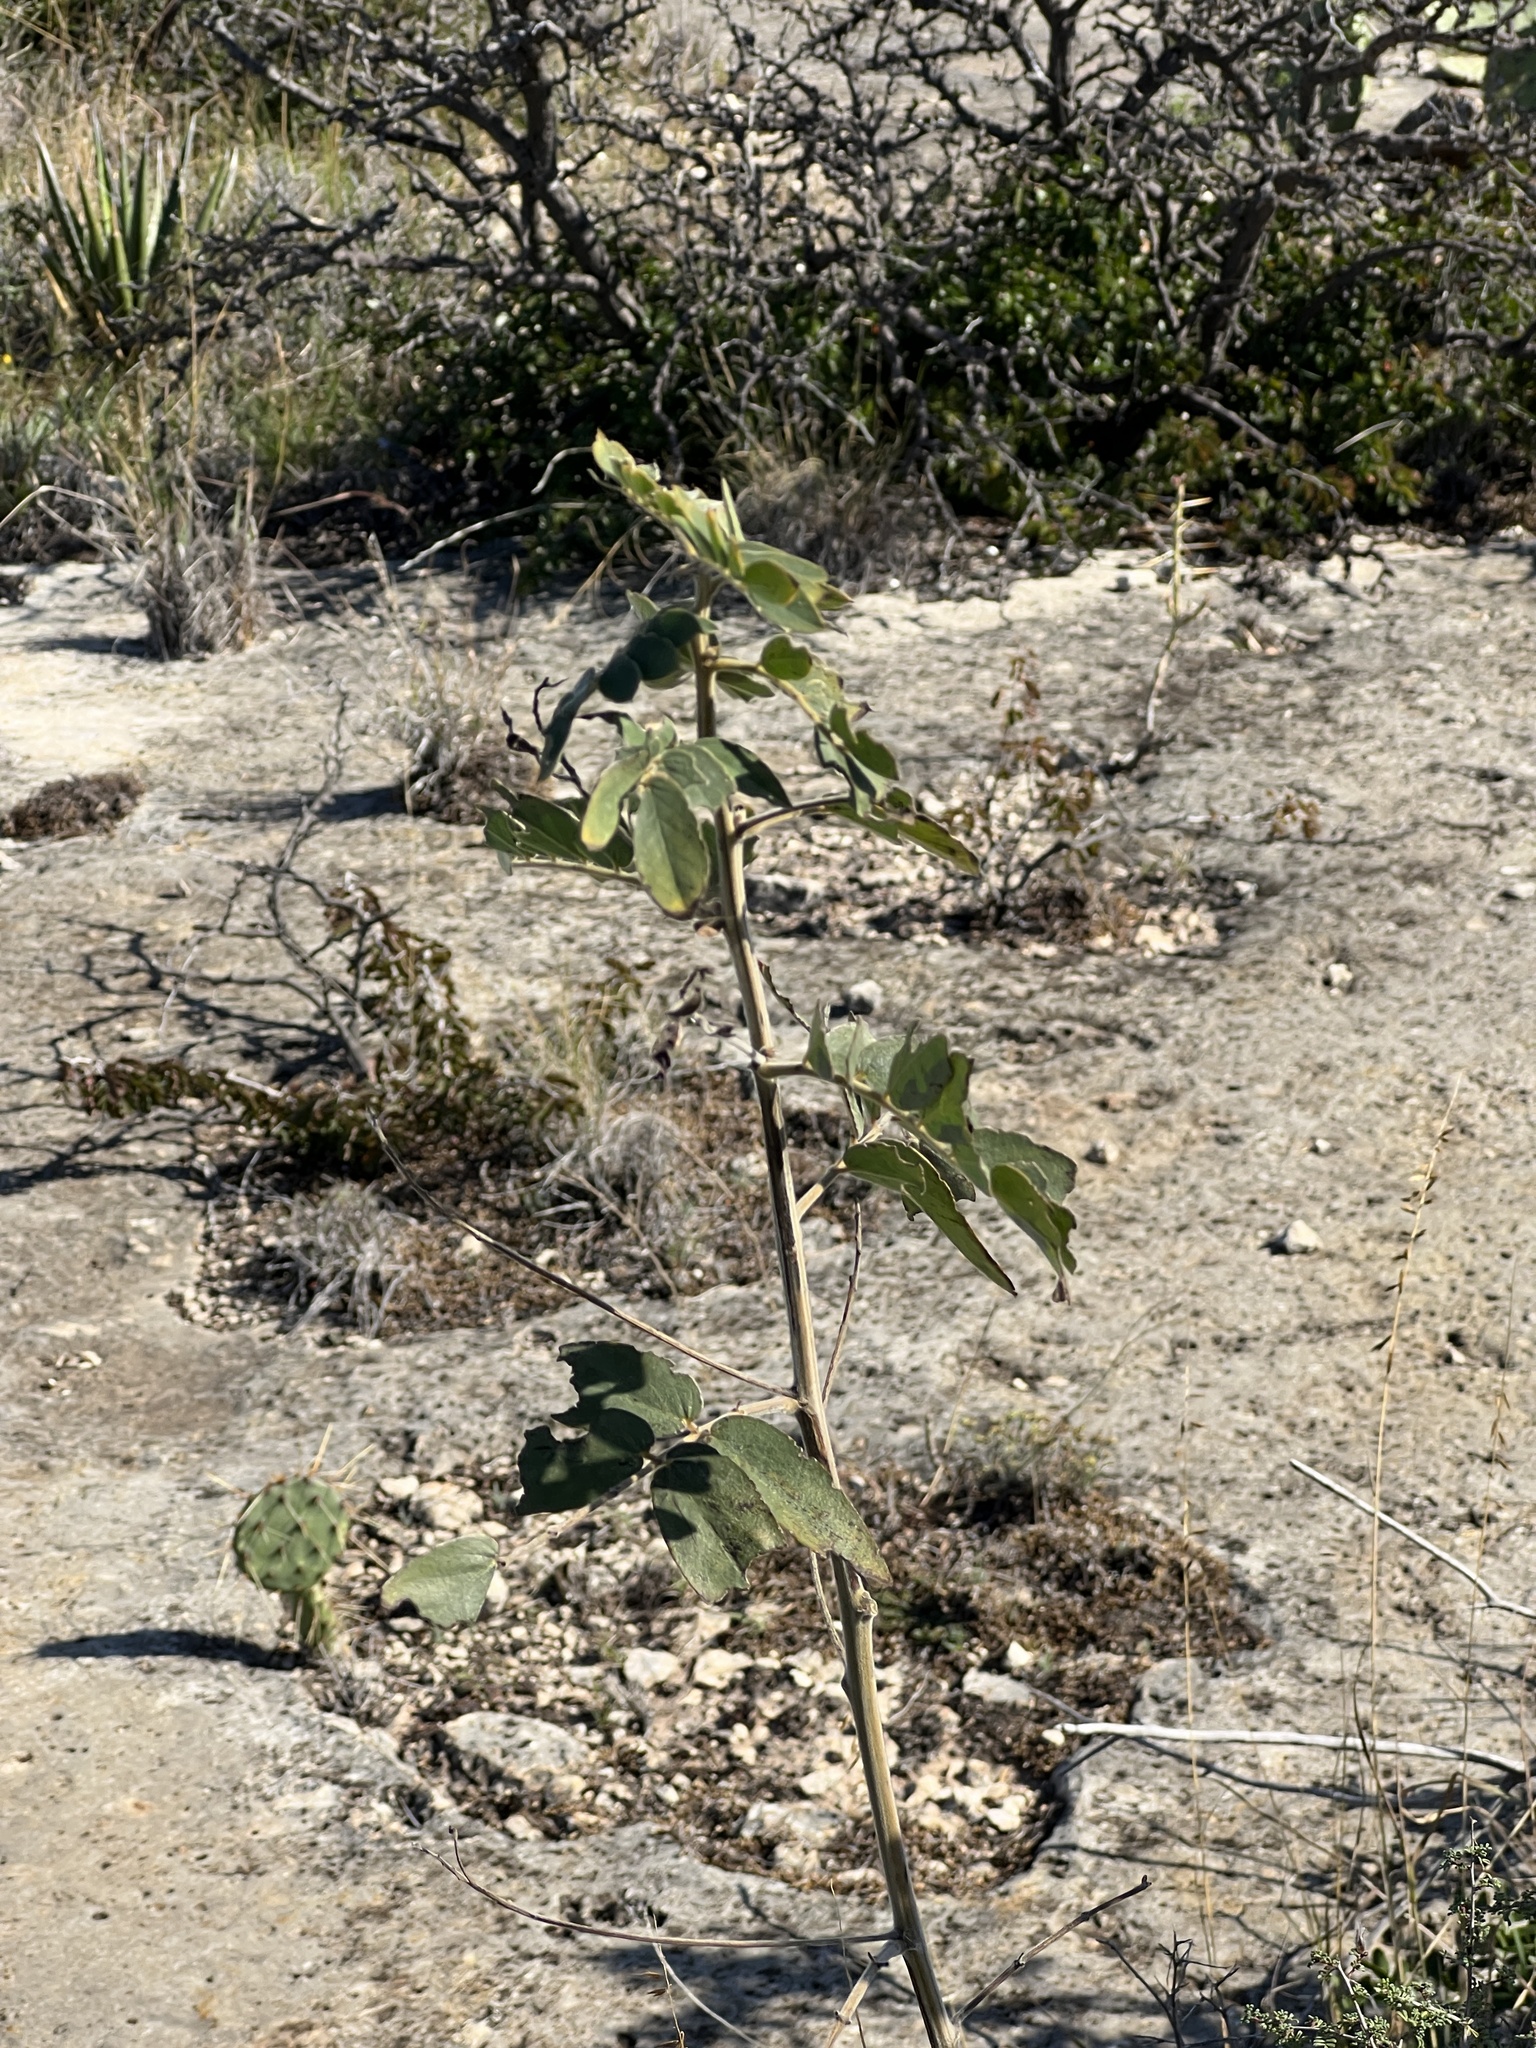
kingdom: Plantae
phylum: Tracheophyta
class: Magnoliopsida
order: Fabales
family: Fabaceae
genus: Senna
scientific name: Senna lindheimeriana
